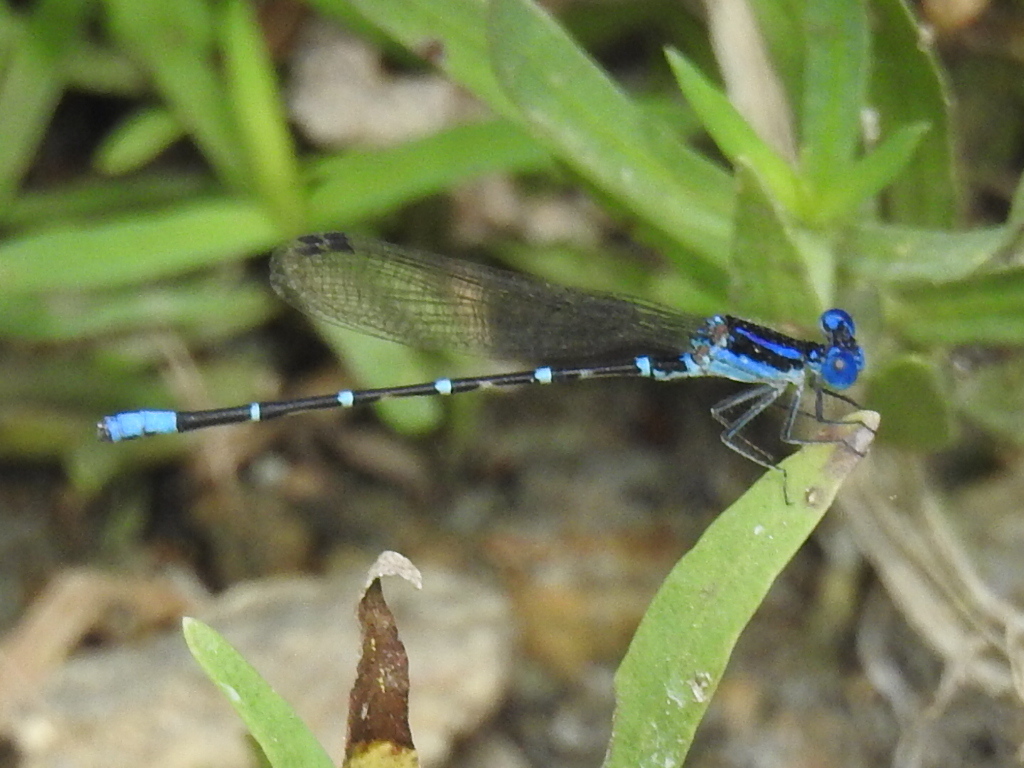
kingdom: Animalia
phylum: Arthropoda
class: Insecta
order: Odonata
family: Coenagrionidae
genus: Argia
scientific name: Argia sedula
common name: Blue-ringed dancer
